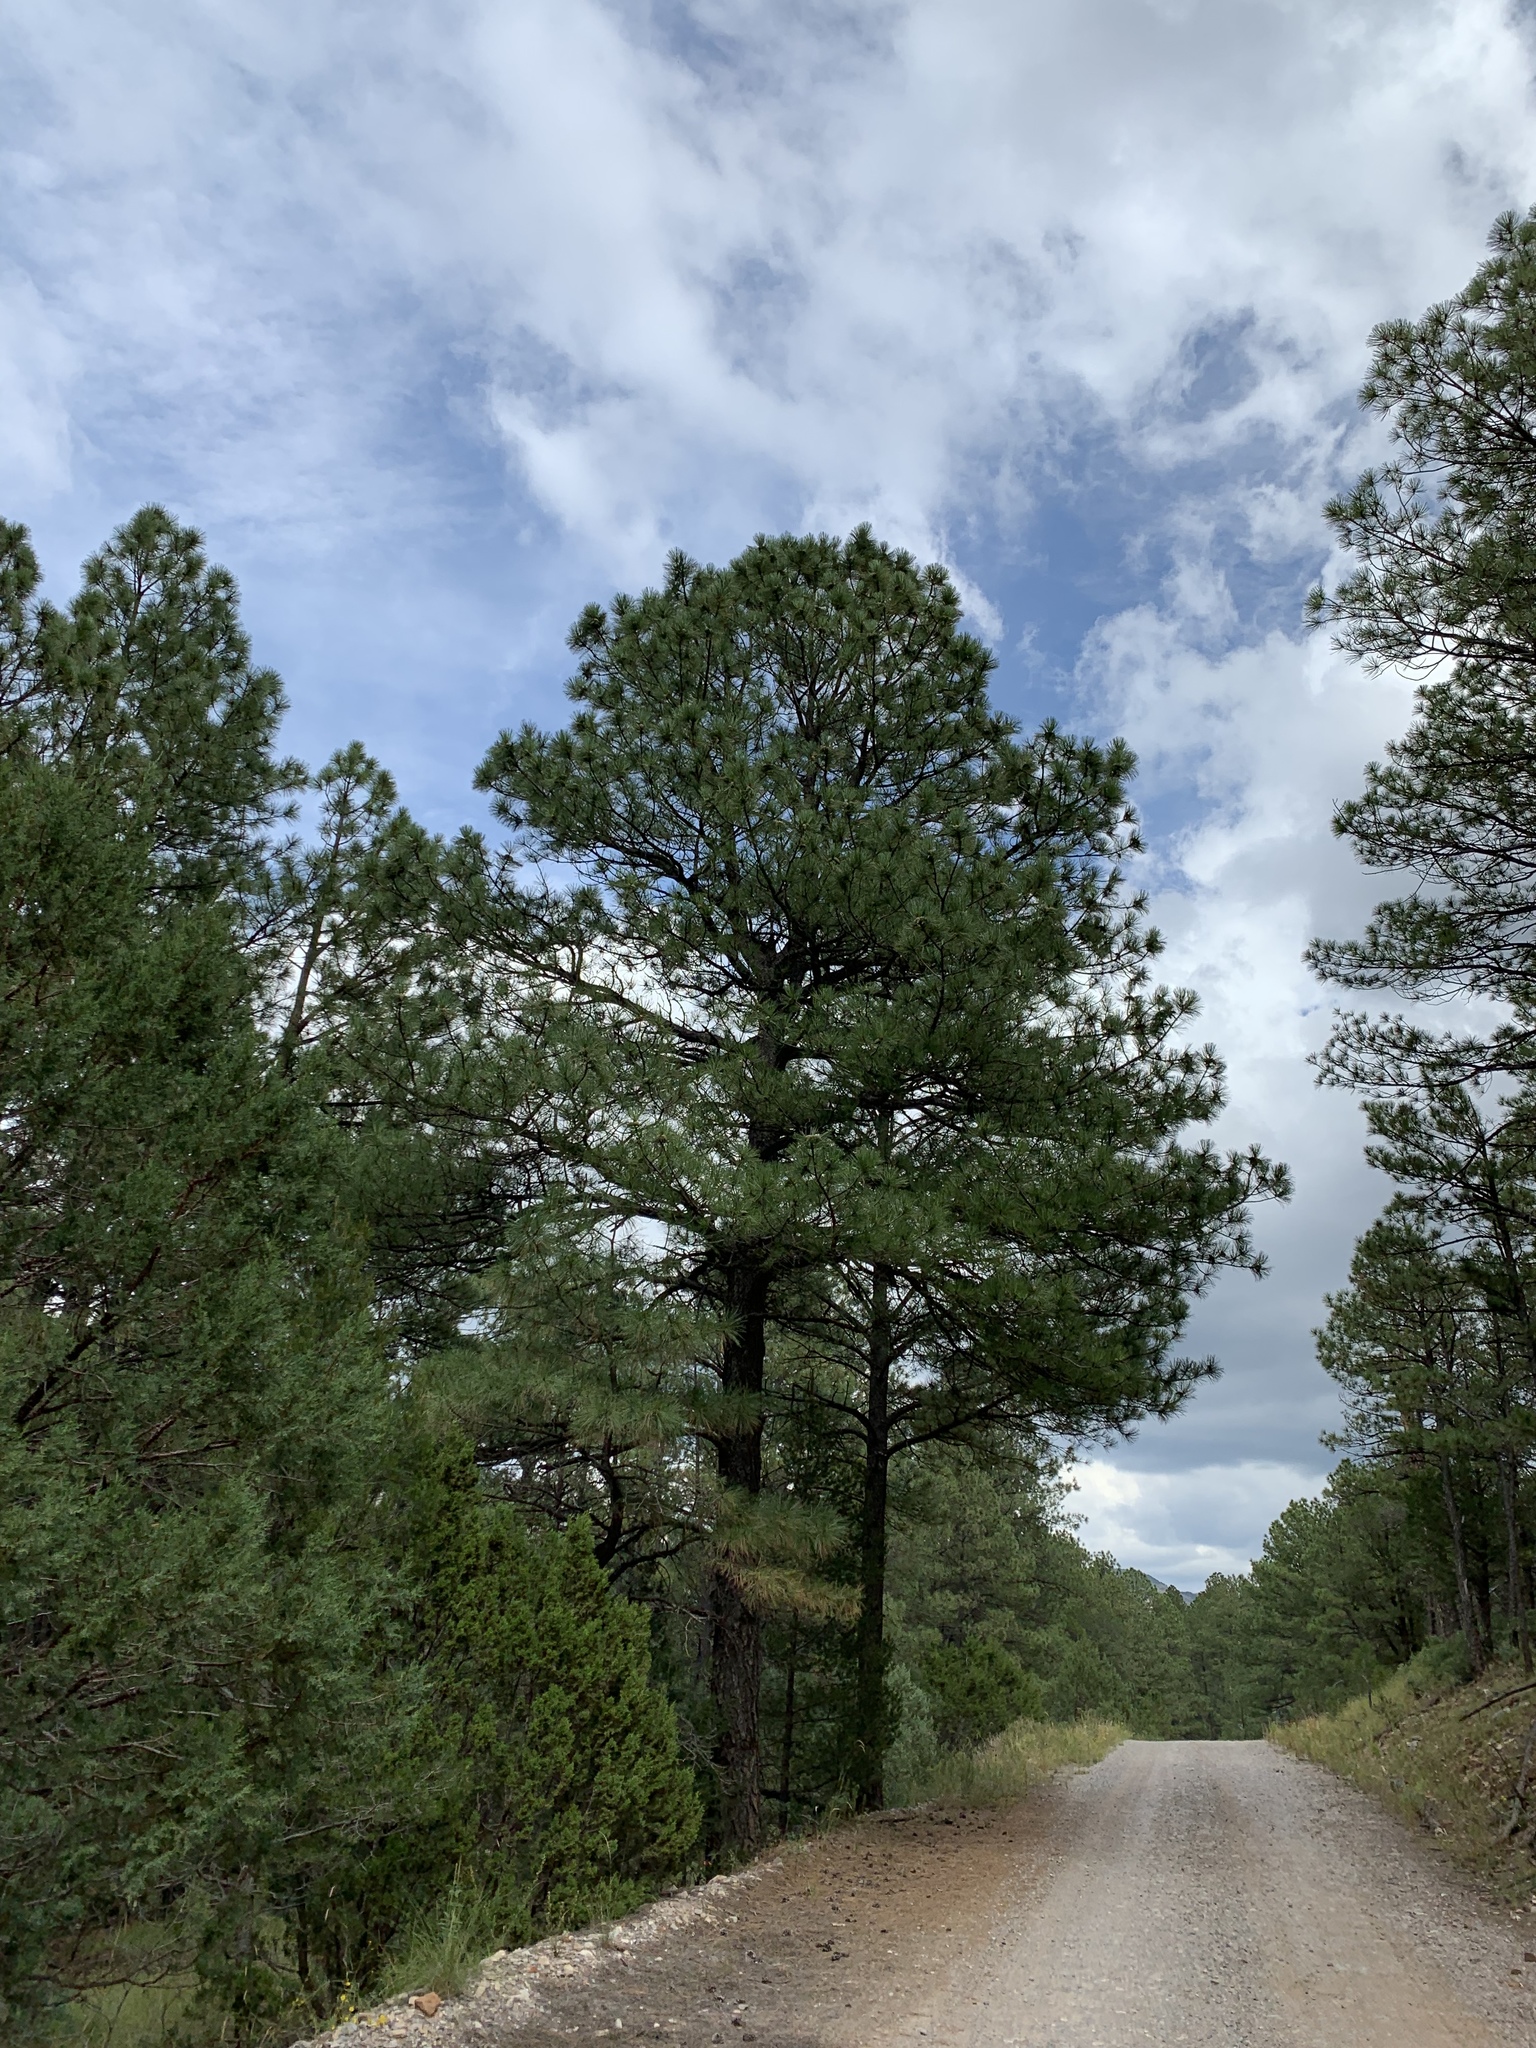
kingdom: Plantae
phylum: Tracheophyta
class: Pinopsida
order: Pinales
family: Pinaceae
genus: Pinus
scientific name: Pinus ponderosa
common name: Western yellow-pine
